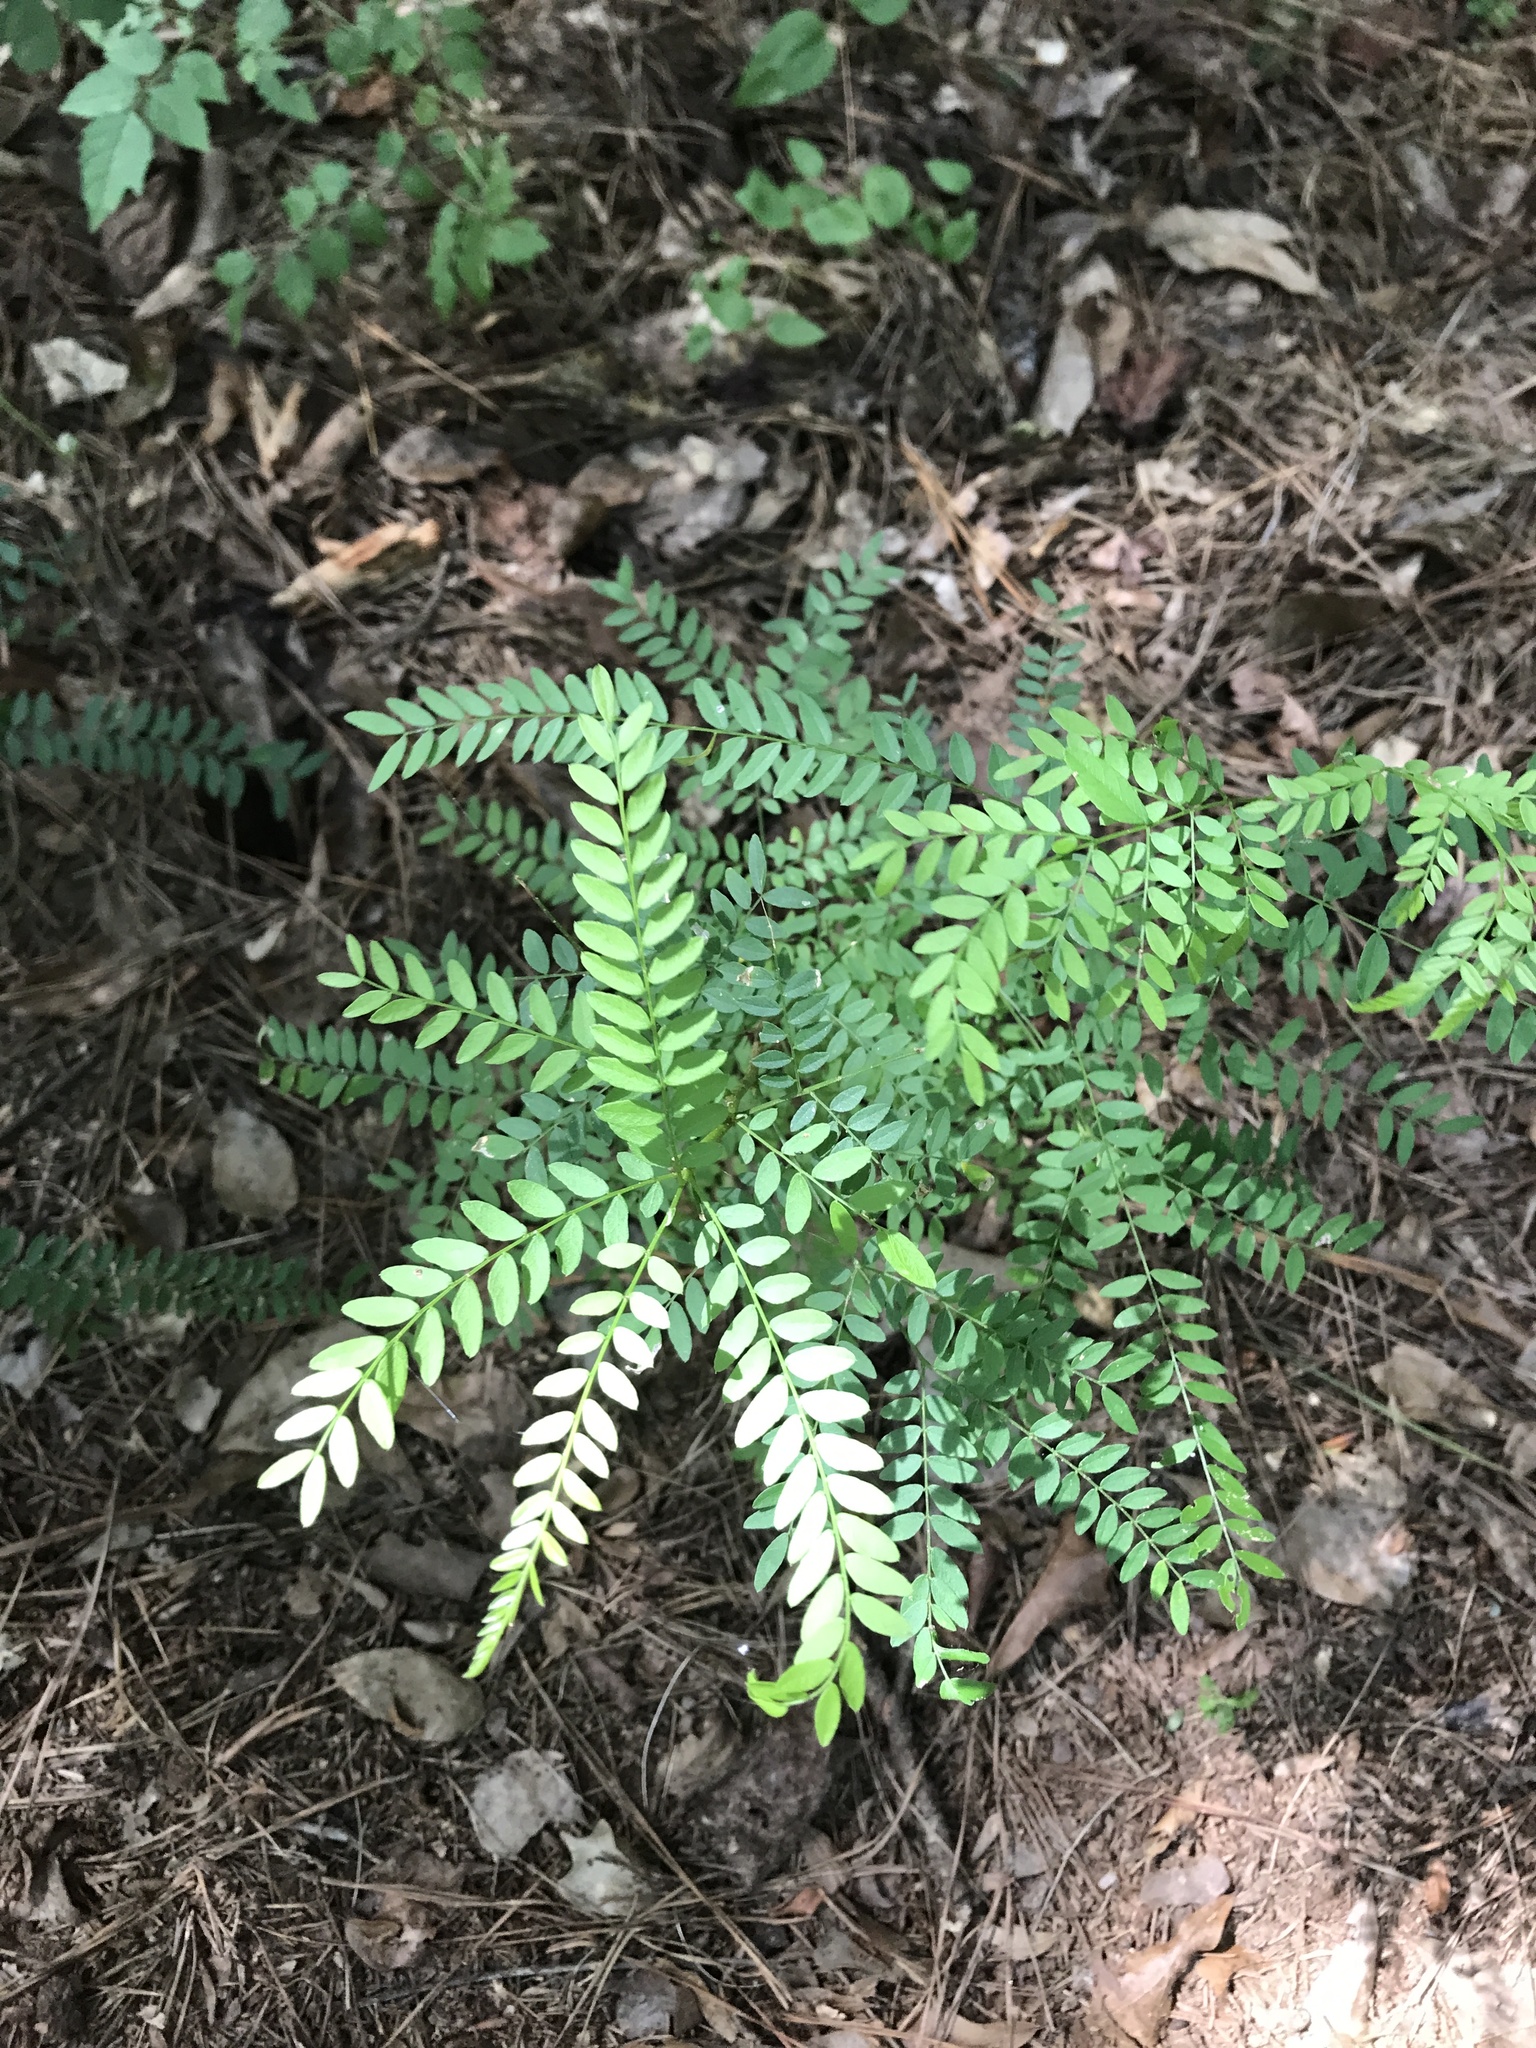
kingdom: Plantae
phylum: Tracheophyta
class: Magnoliopsida
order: Fabales
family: Fabaceae
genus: Gleditsia
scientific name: Gleditsia triacanthos
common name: Common honeylocust
